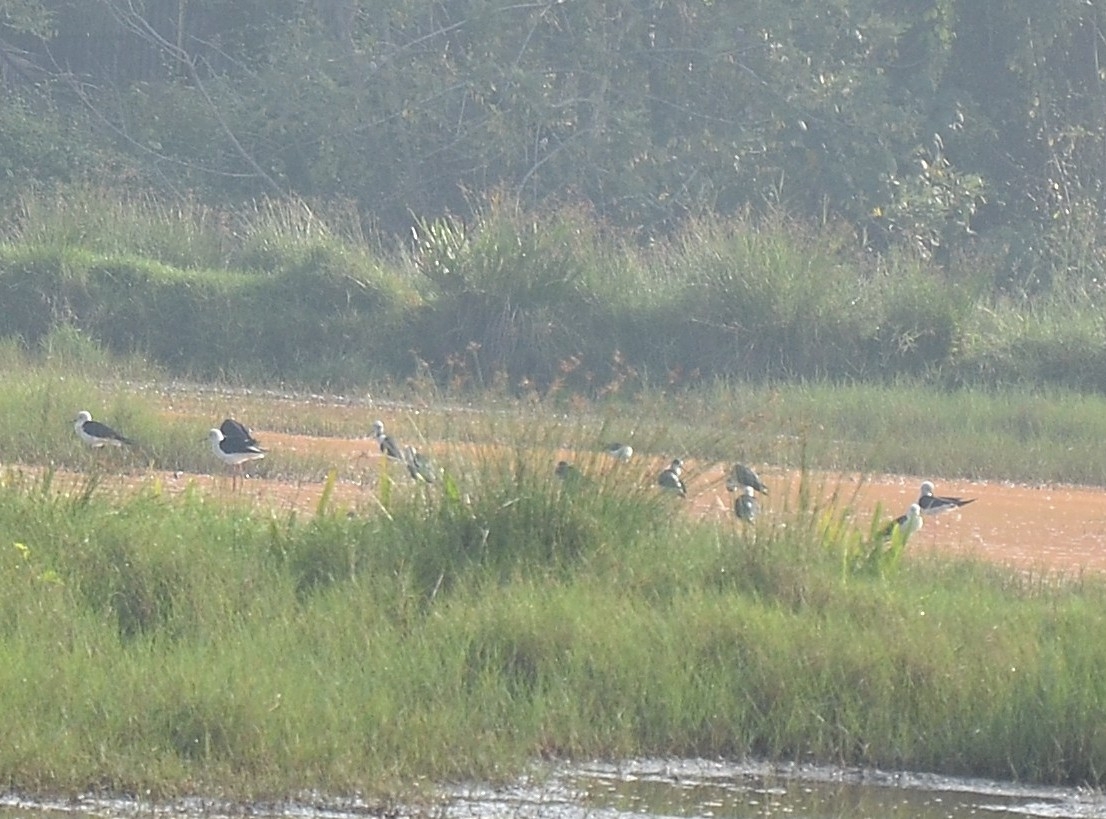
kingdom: Animalia
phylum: Chordata
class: Aves
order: Charadriiformes
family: Recurvirostridae
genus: Himantopus
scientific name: Himantopus himantopus
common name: Black-winged stilt
